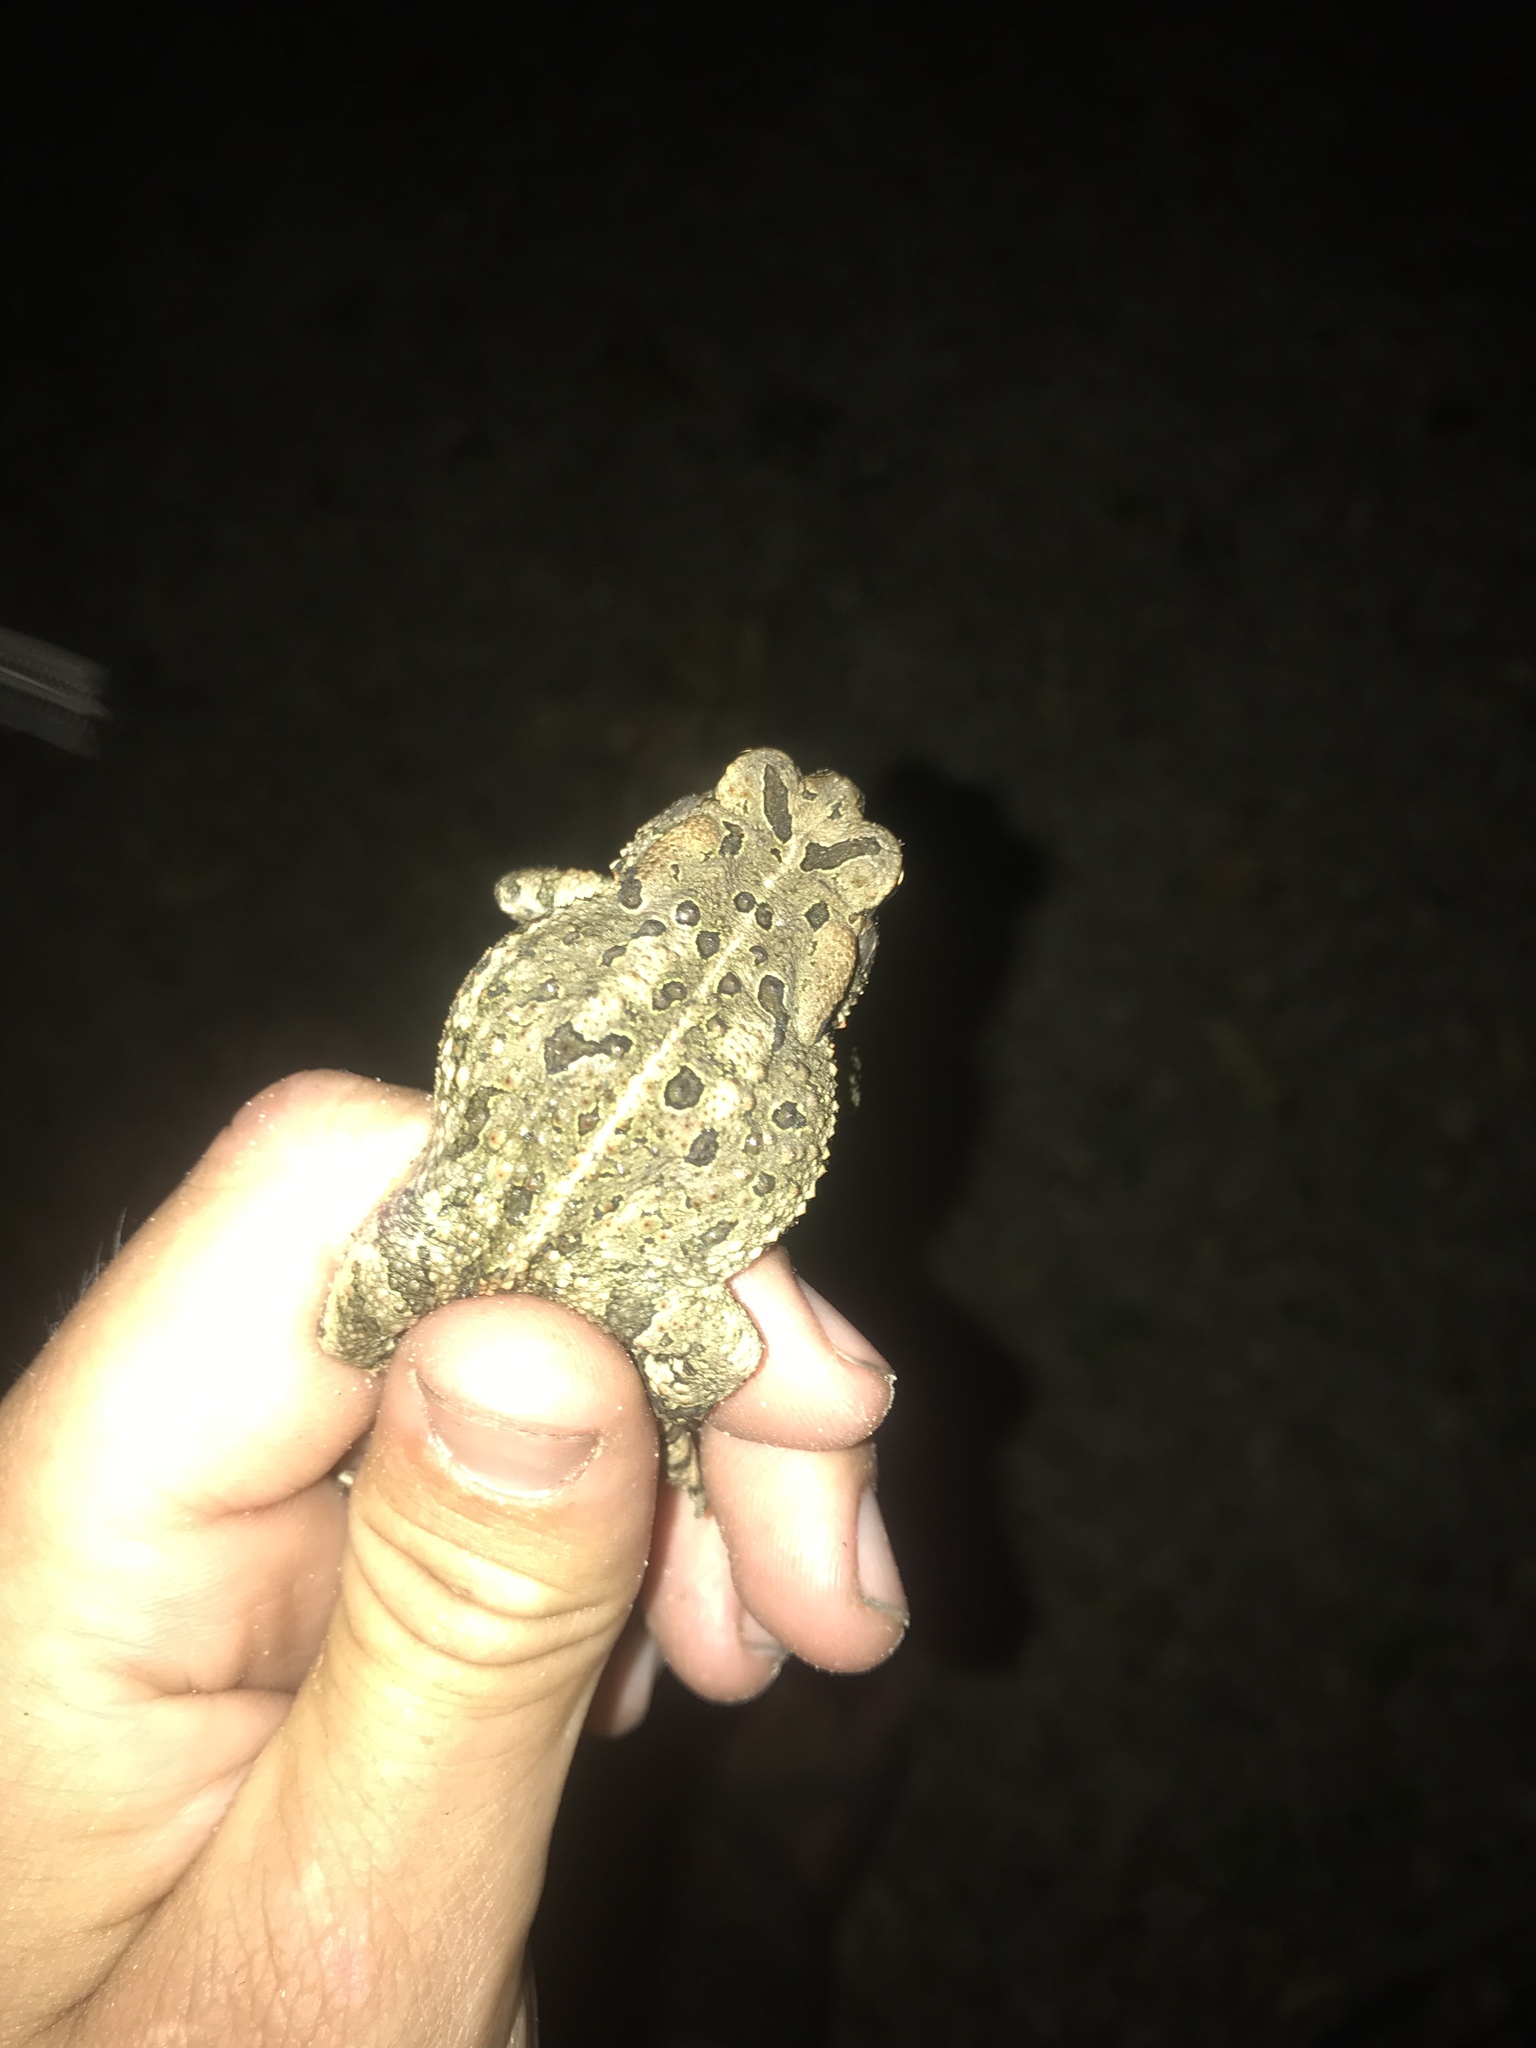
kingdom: Animalia
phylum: Chordata
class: Amphibia
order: Anura
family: Bufonidae
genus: Anaxyrus
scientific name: Anaxyrus fowleri
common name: Fowler's toad
